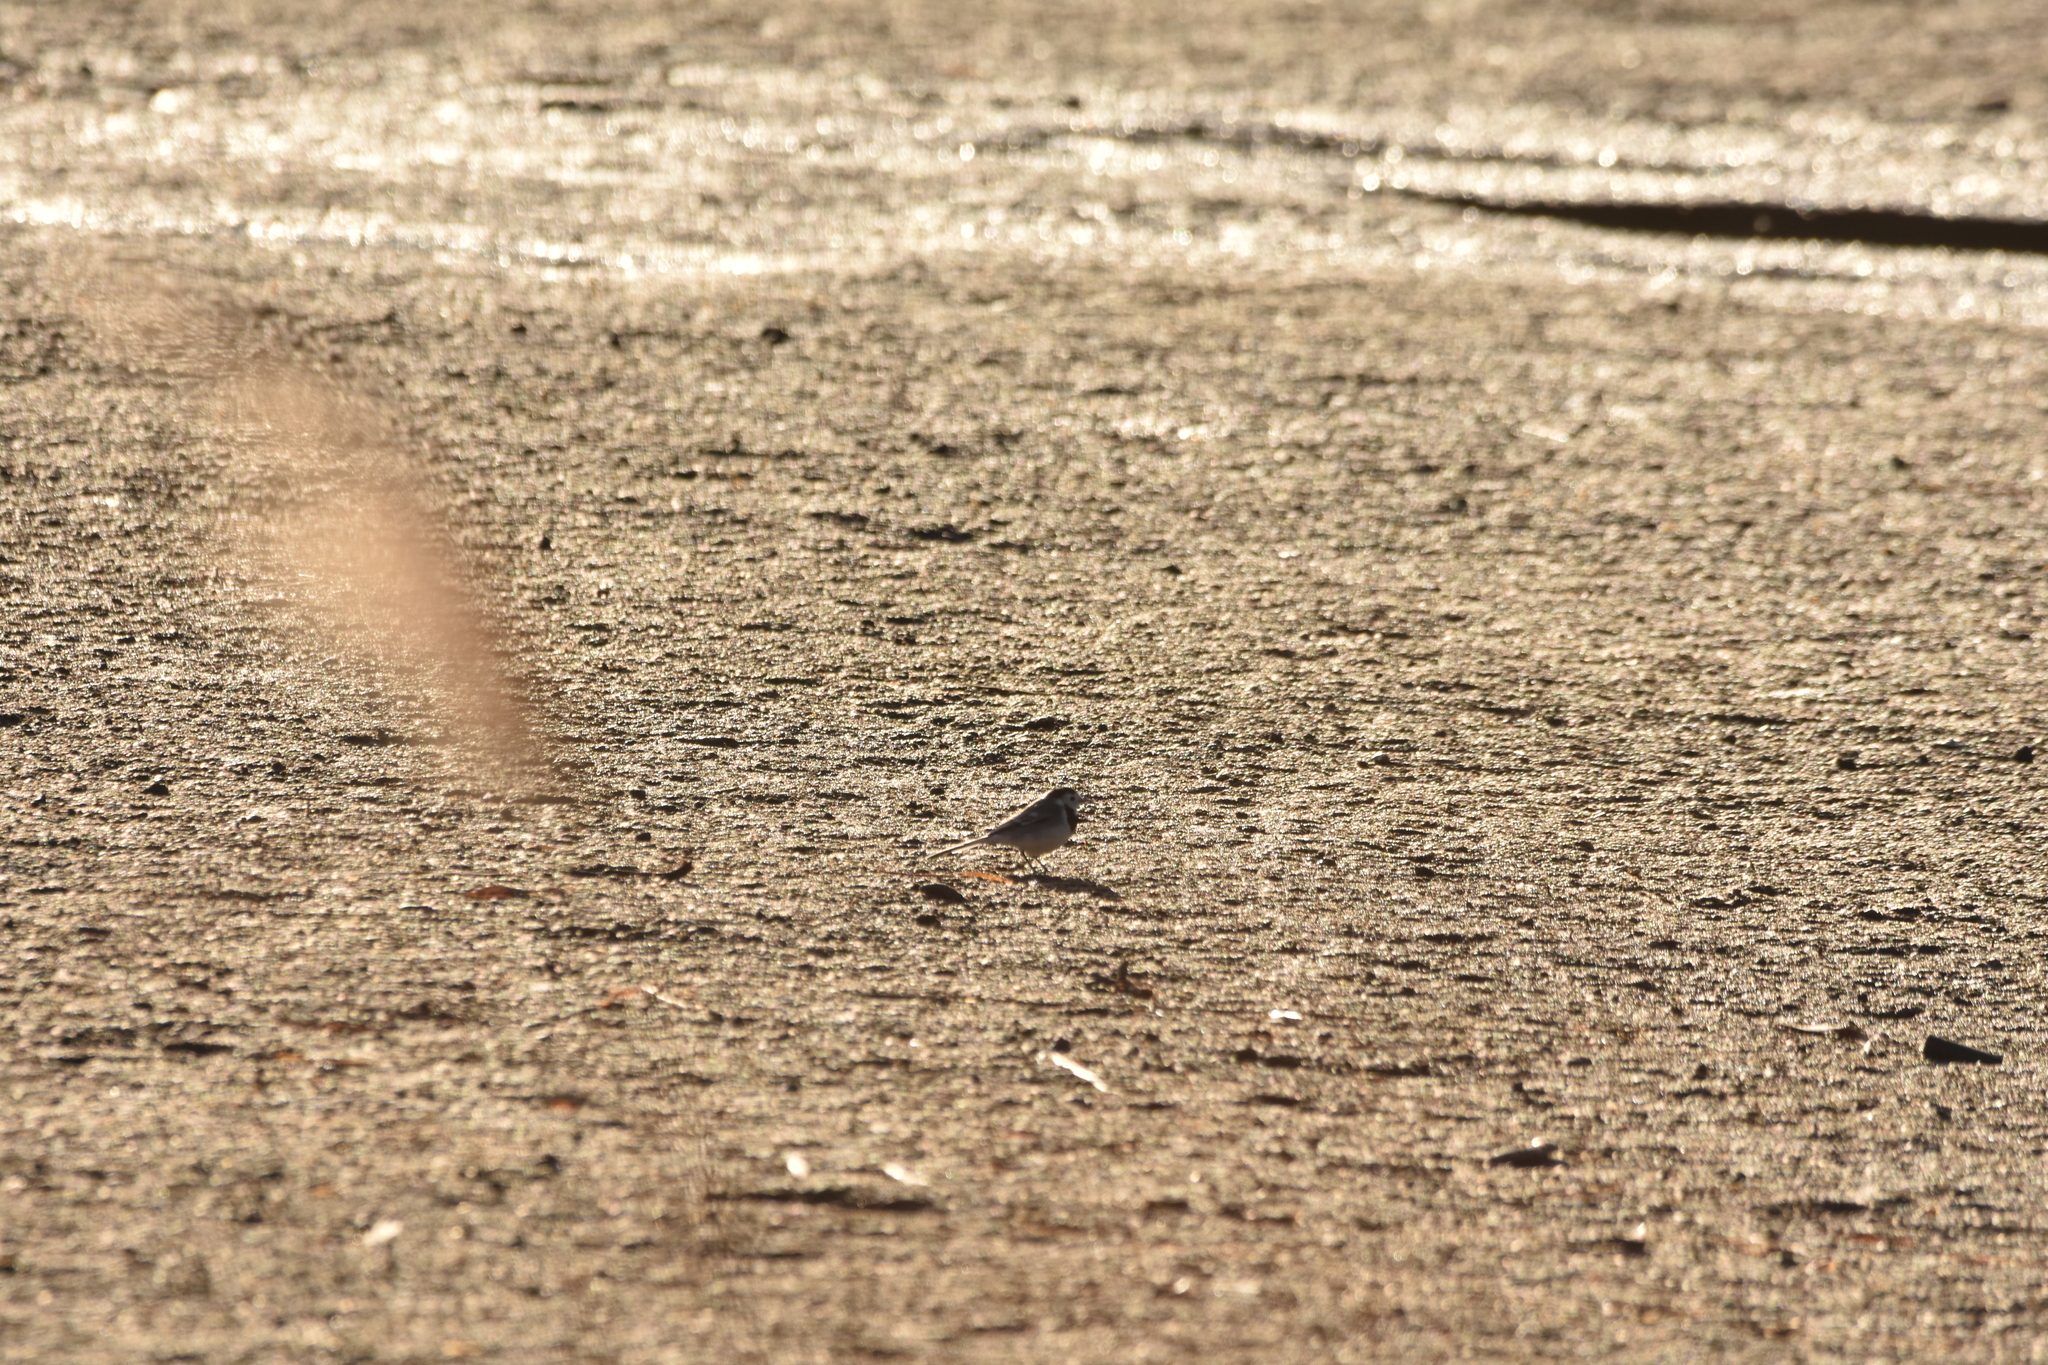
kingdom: Animalia
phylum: Chordata
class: Aves
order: Passeriformes
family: Motacillidae
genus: Motacilla
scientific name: Motacilla alba
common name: White wagtail
